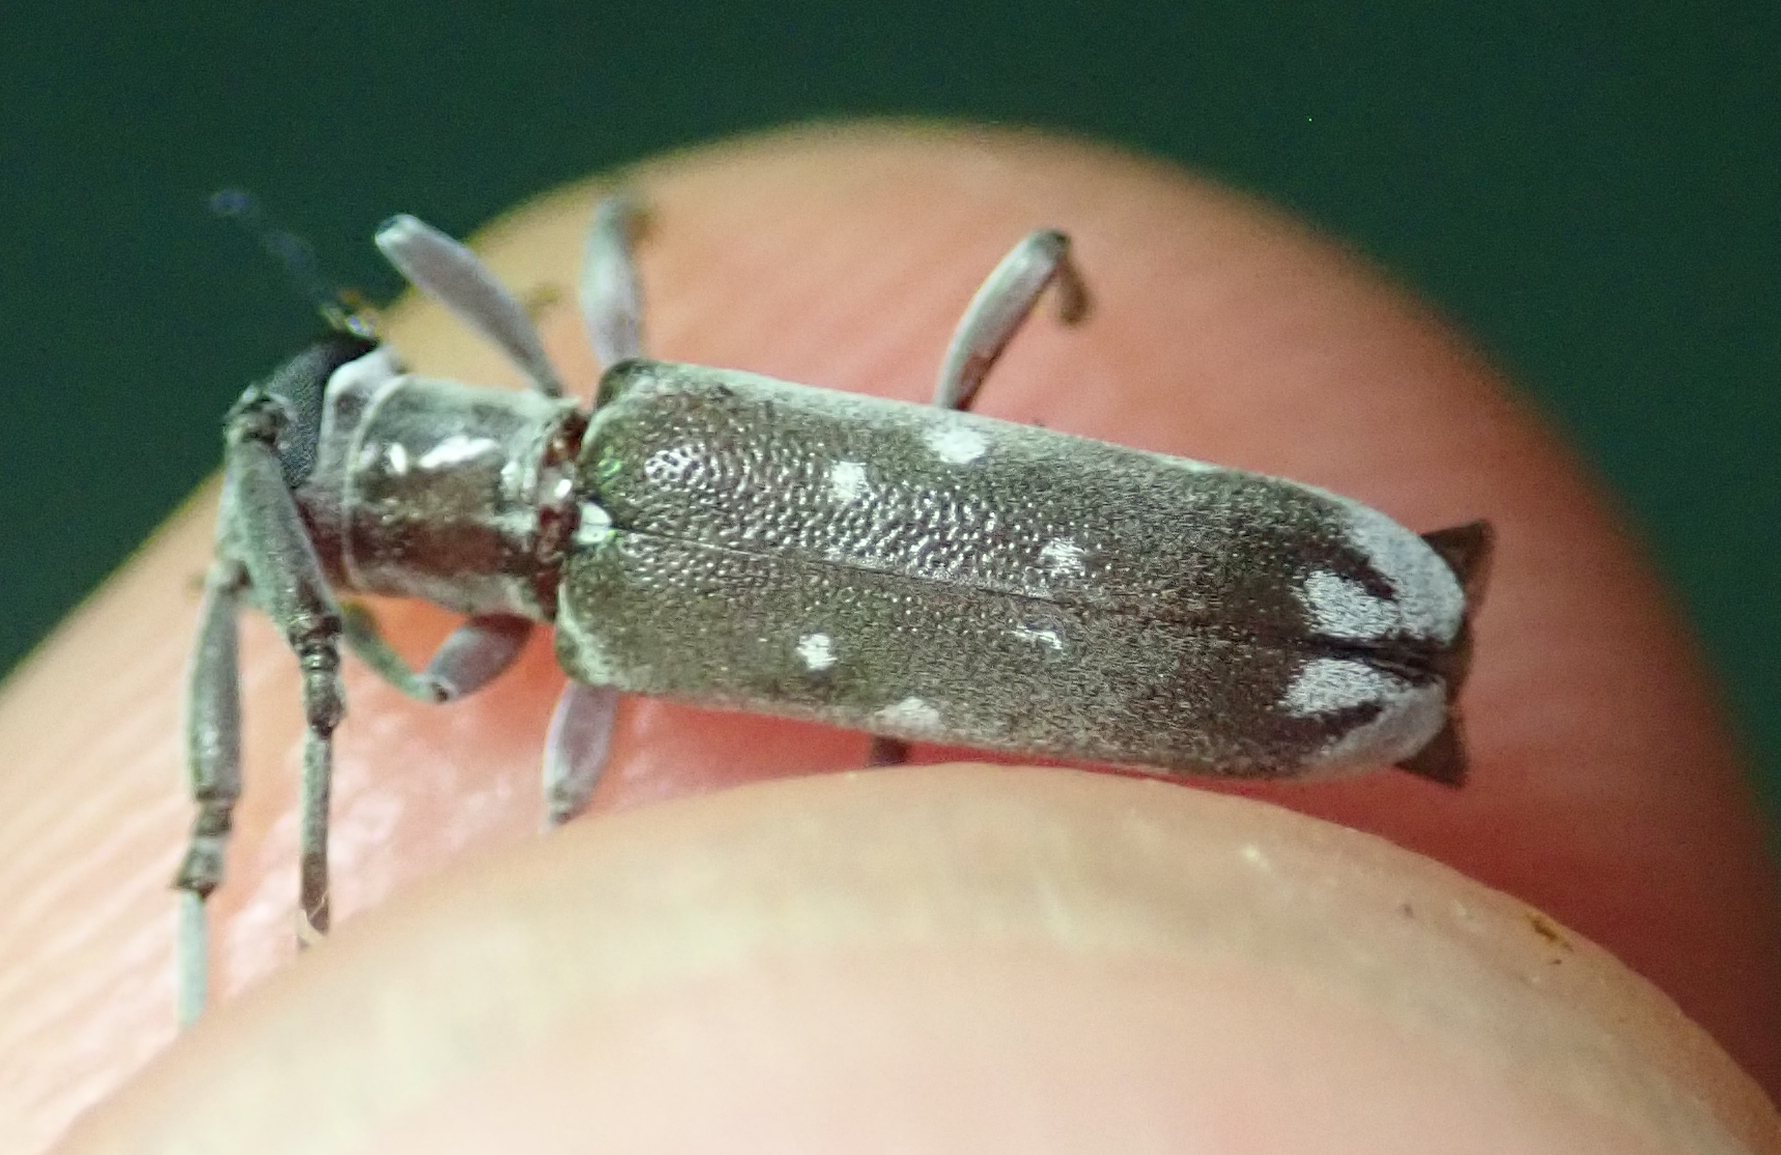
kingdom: Animalia
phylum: Arthropoda
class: Insecta
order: Coleoptera
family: Cerambycidae
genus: Eunidia
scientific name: Eunidia thomseni
